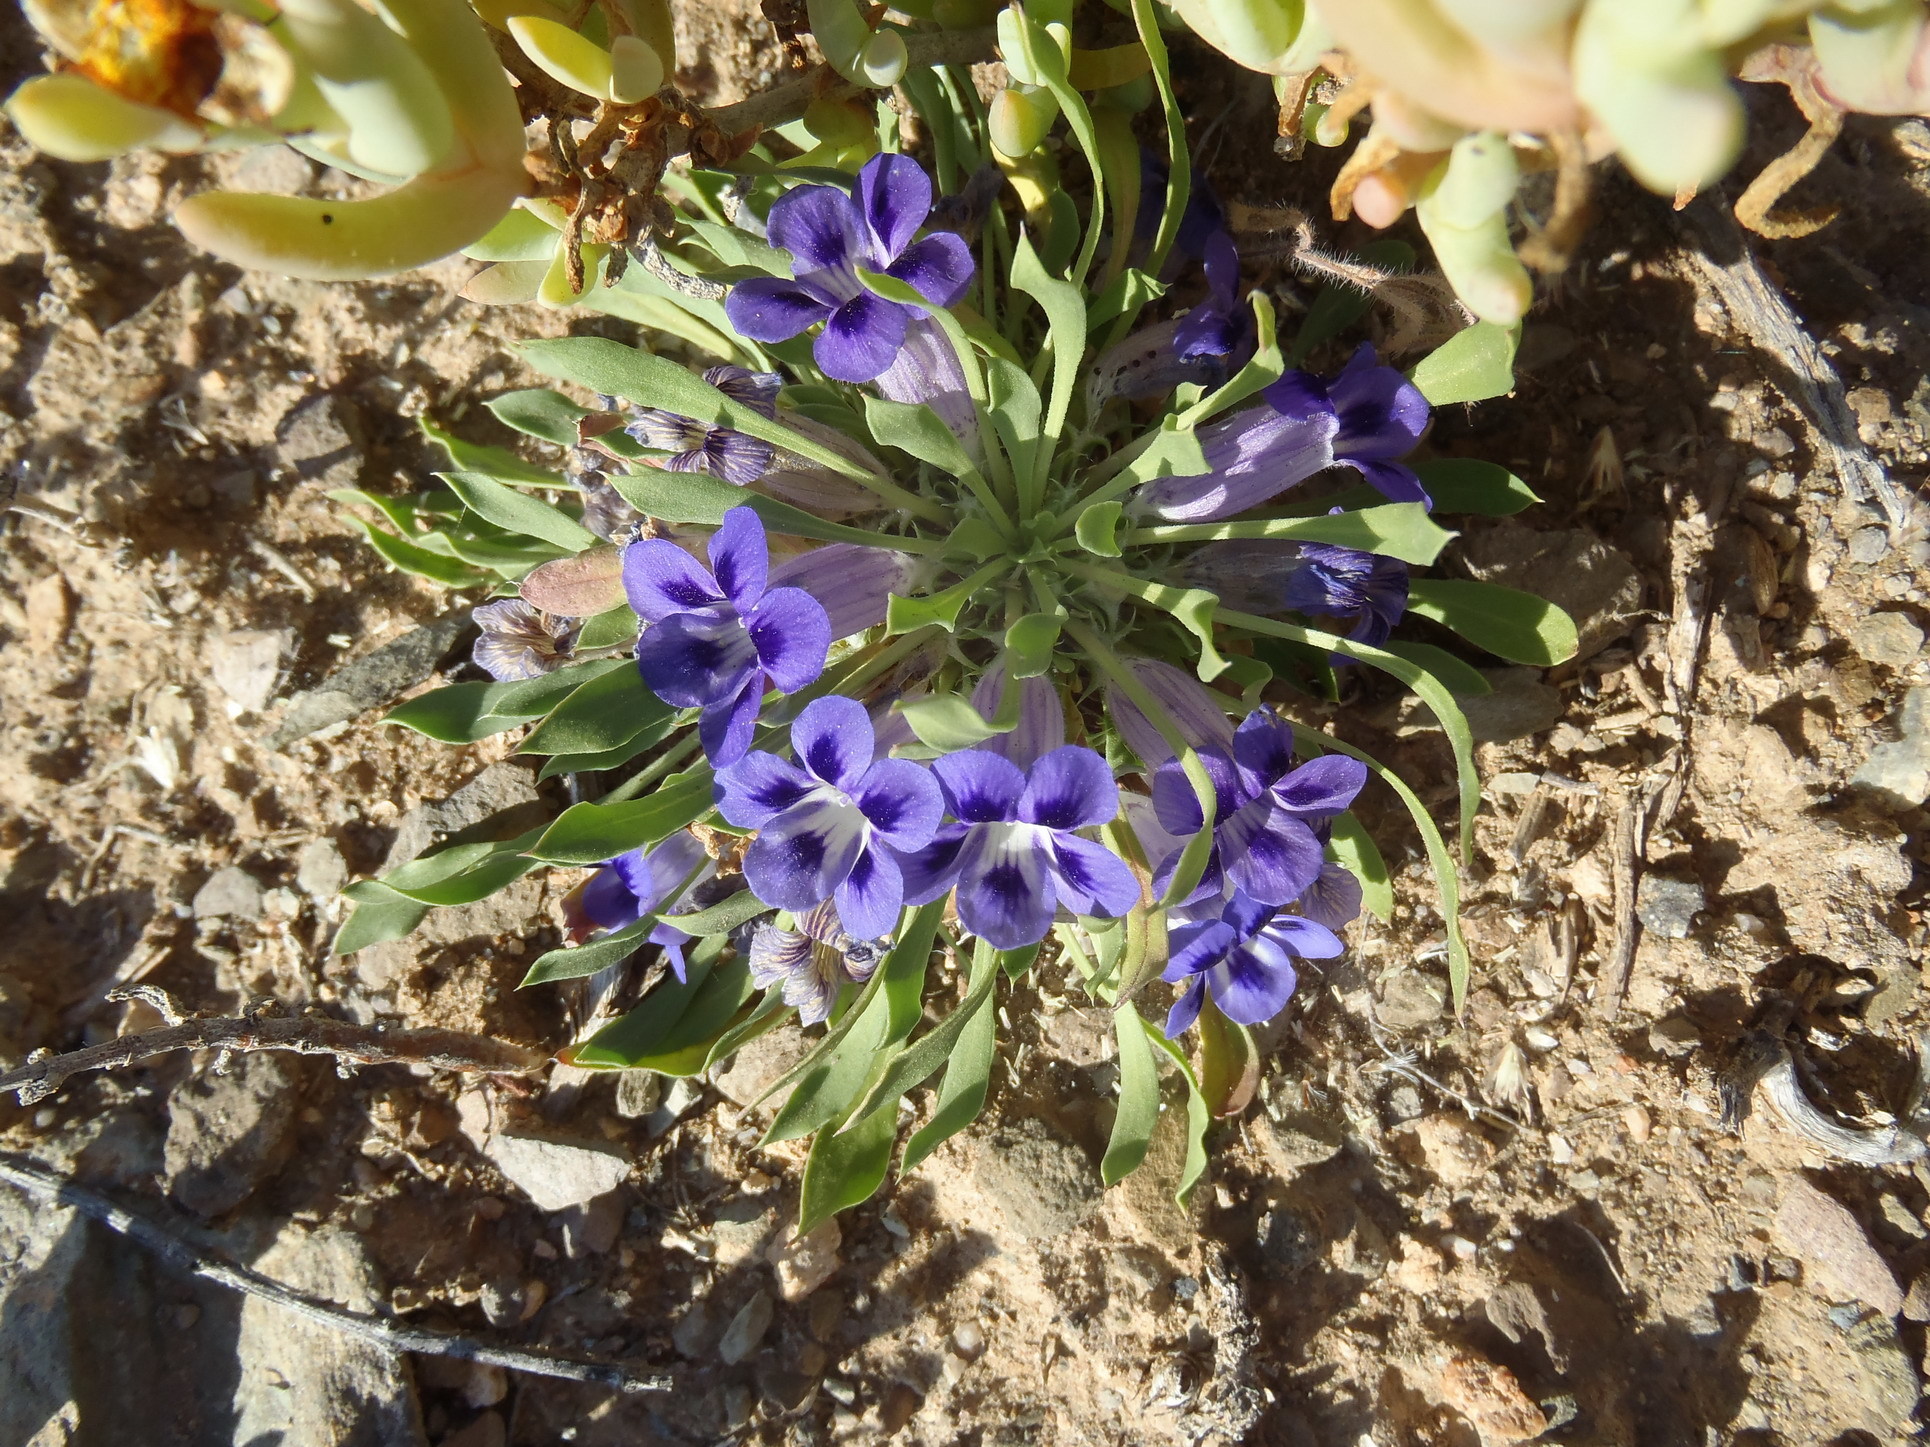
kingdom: Plantae
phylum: Tracheophyta
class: Magnoliopsida
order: Lamiales
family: Scrophulariaceae
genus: Aptosimum
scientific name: Aptosimum indivisum
